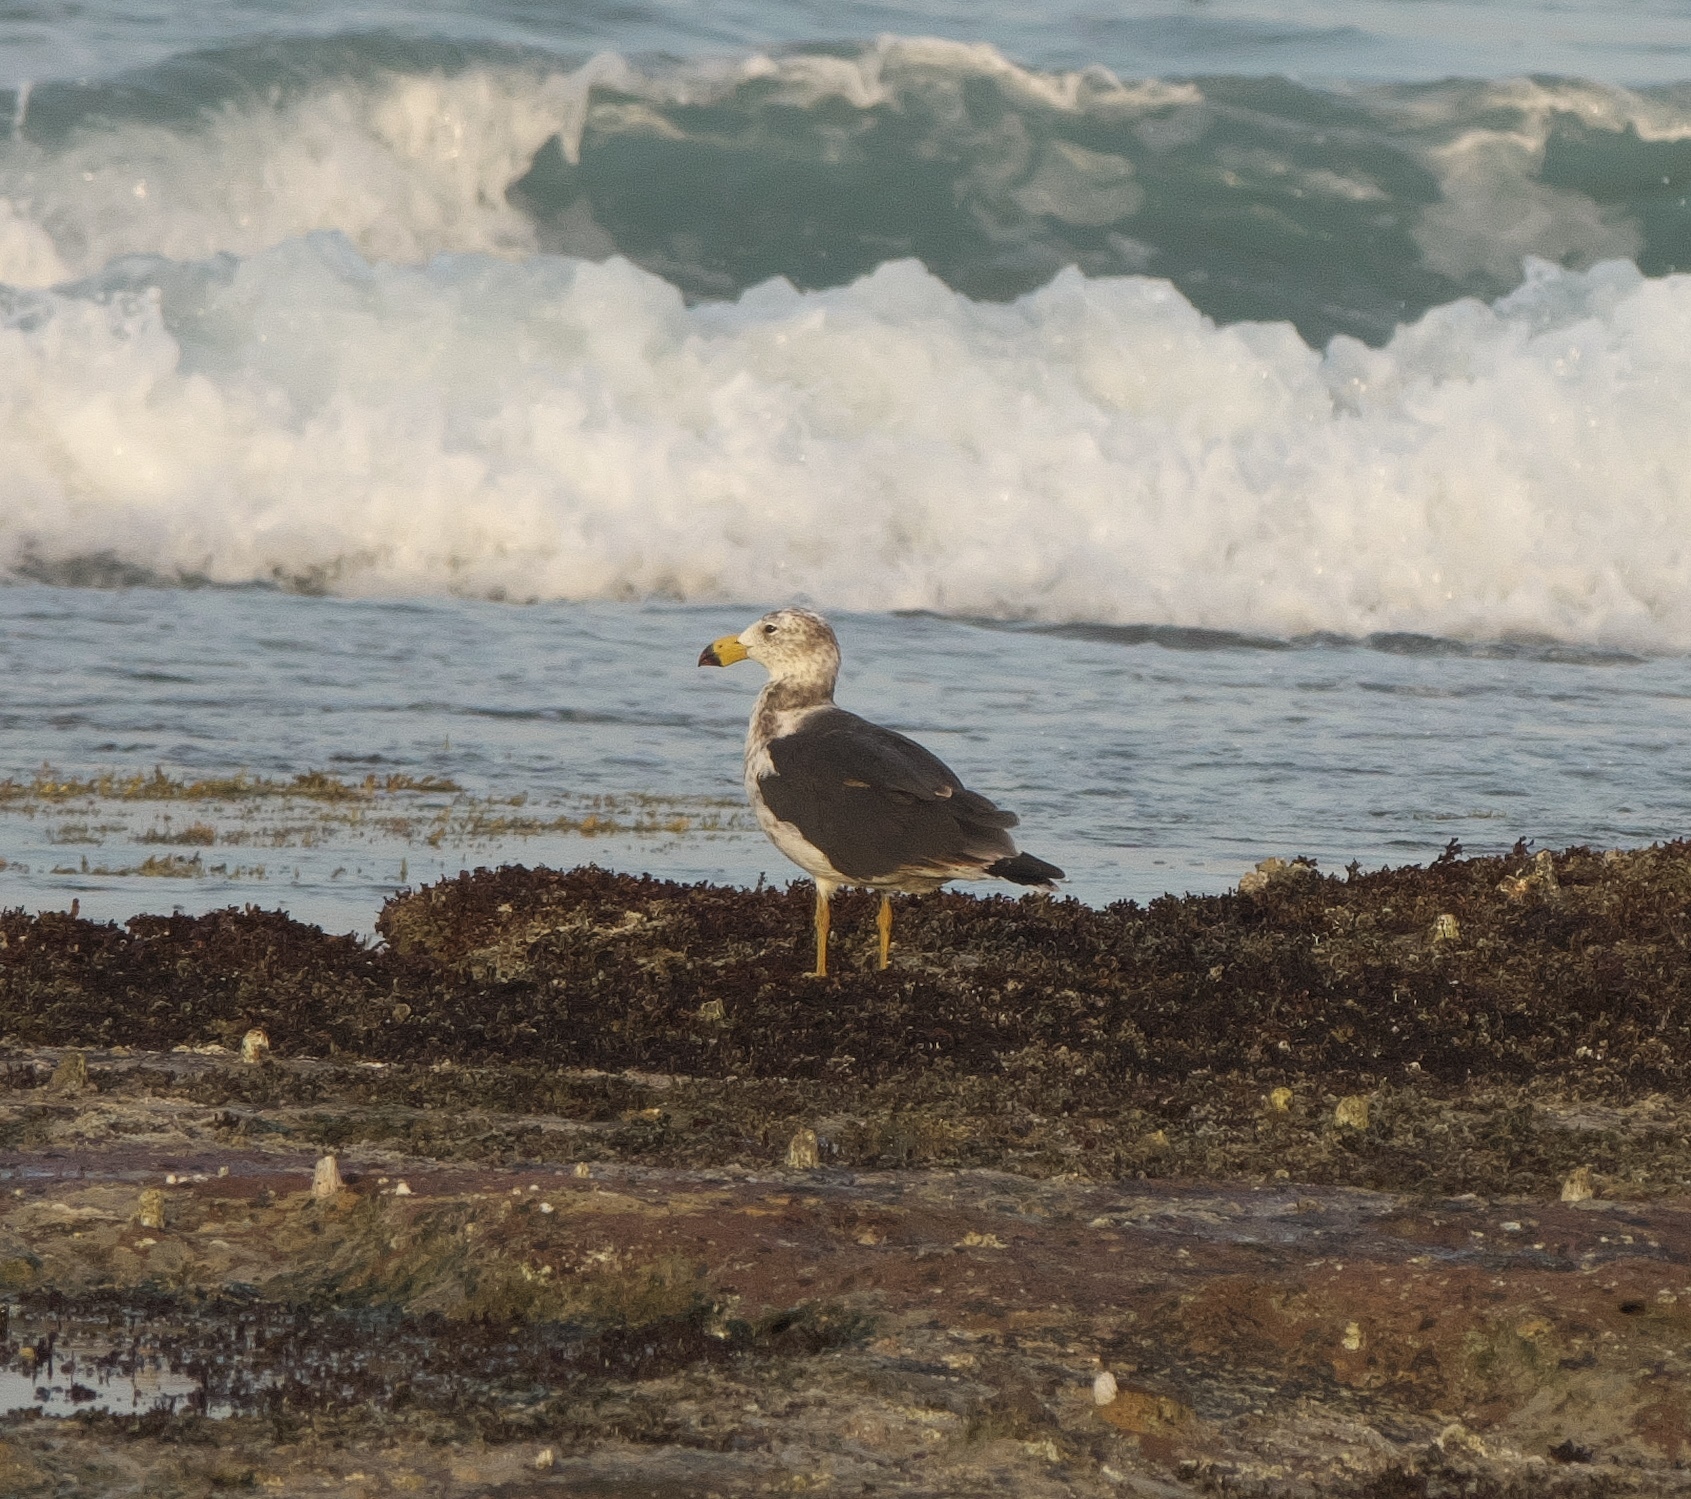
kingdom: Animalia
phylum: Chordata
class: Aves
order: Charadriiformes
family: Laridae
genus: Larus
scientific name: Larus pacificus
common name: Pacific gull
